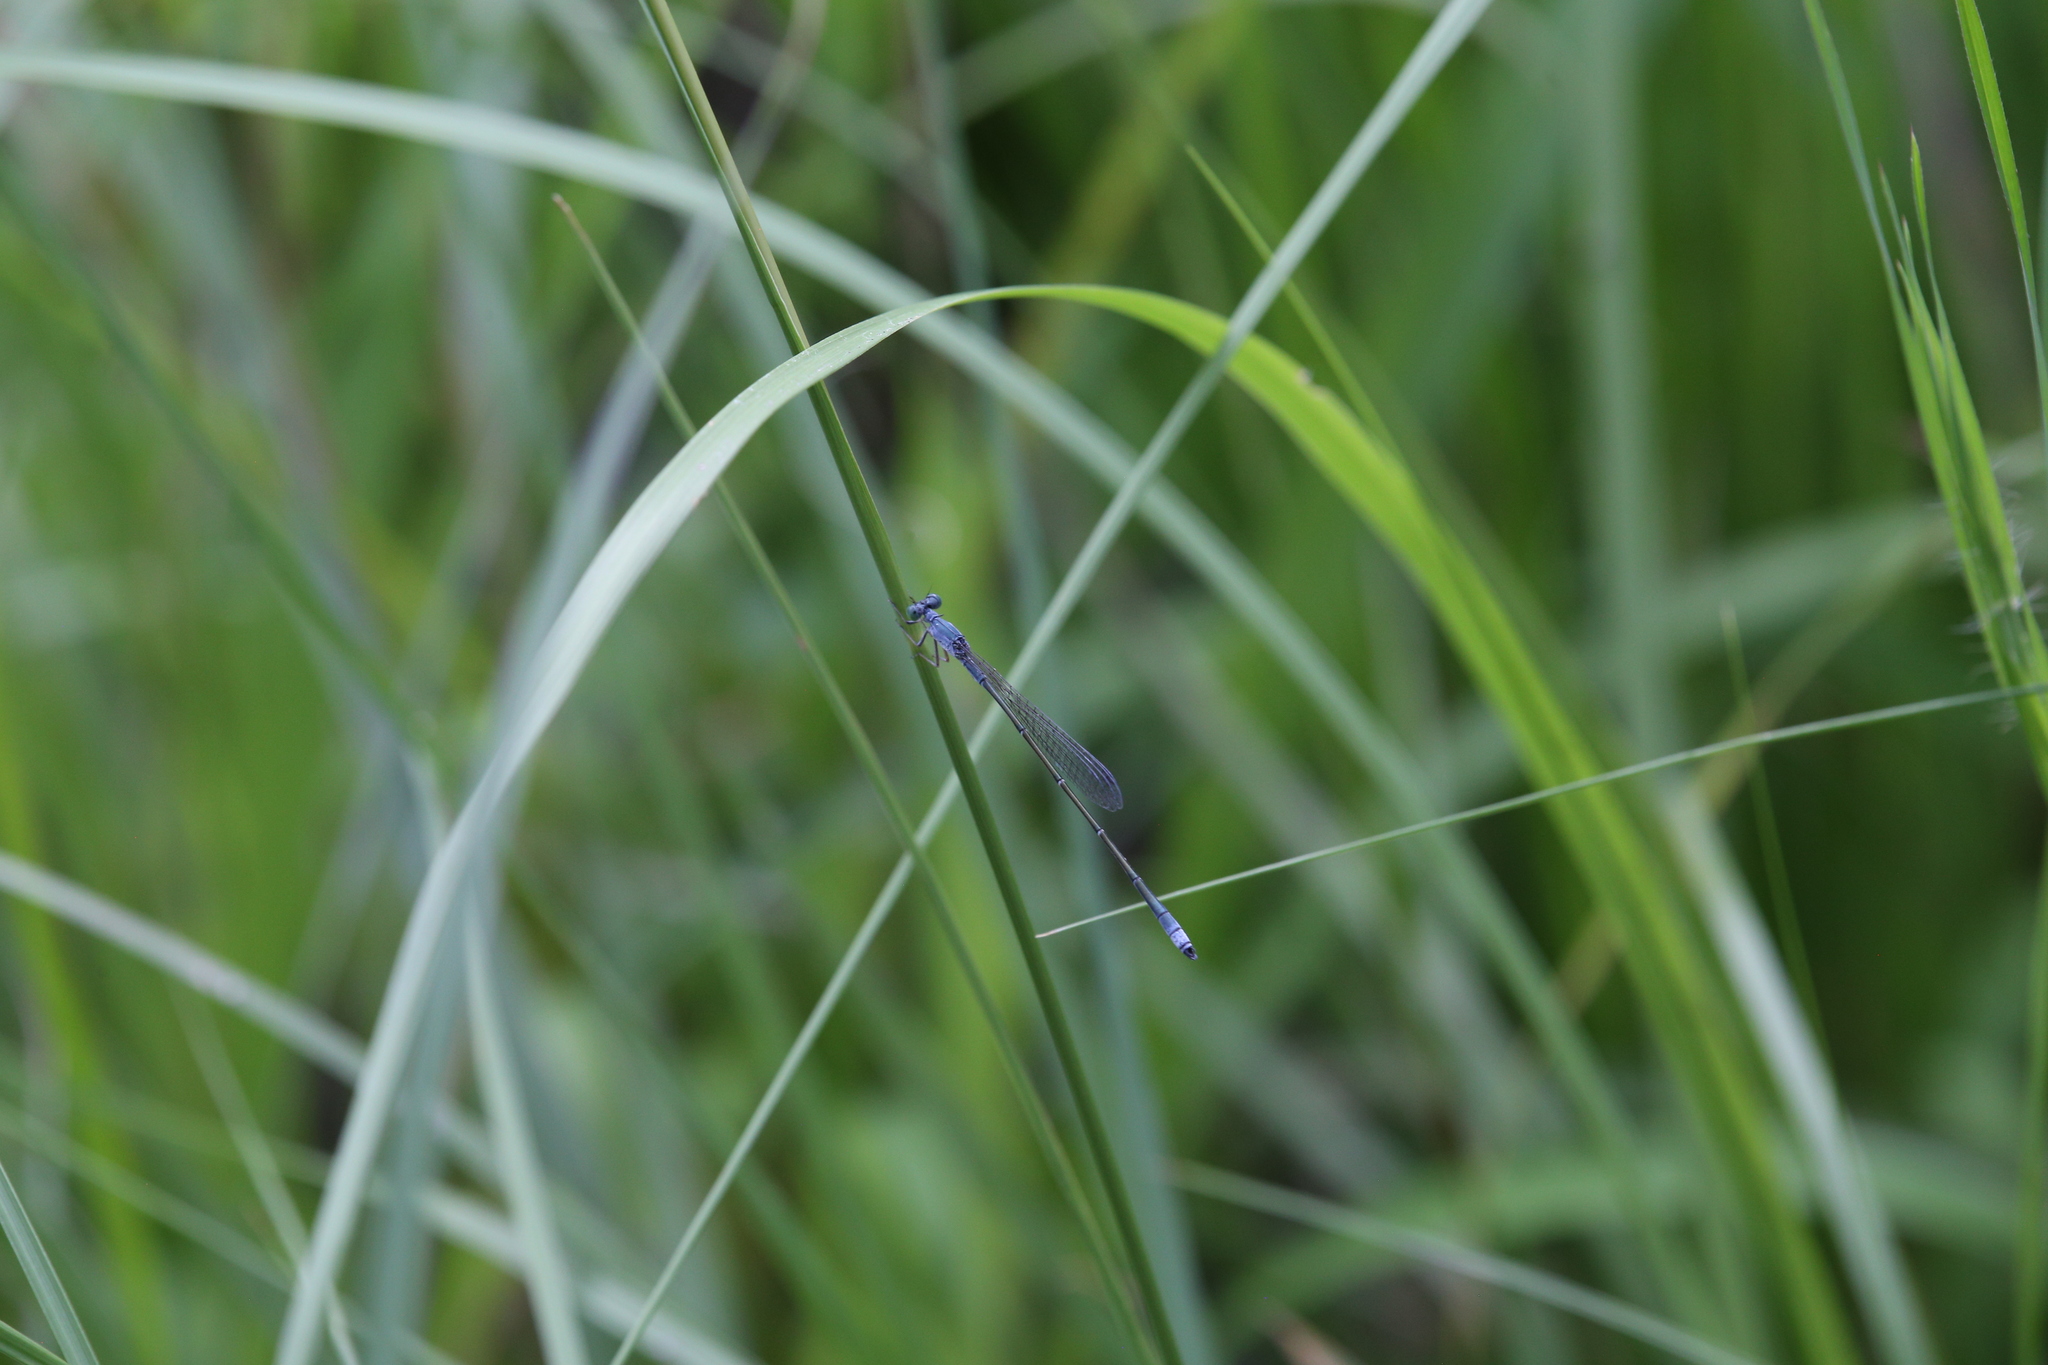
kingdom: Animalia
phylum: Arthropoda
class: Insecta
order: Odonata
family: Isostictidae
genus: Rhadinosticta
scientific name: Rhadinosticta banksi
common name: Northern wiretail
